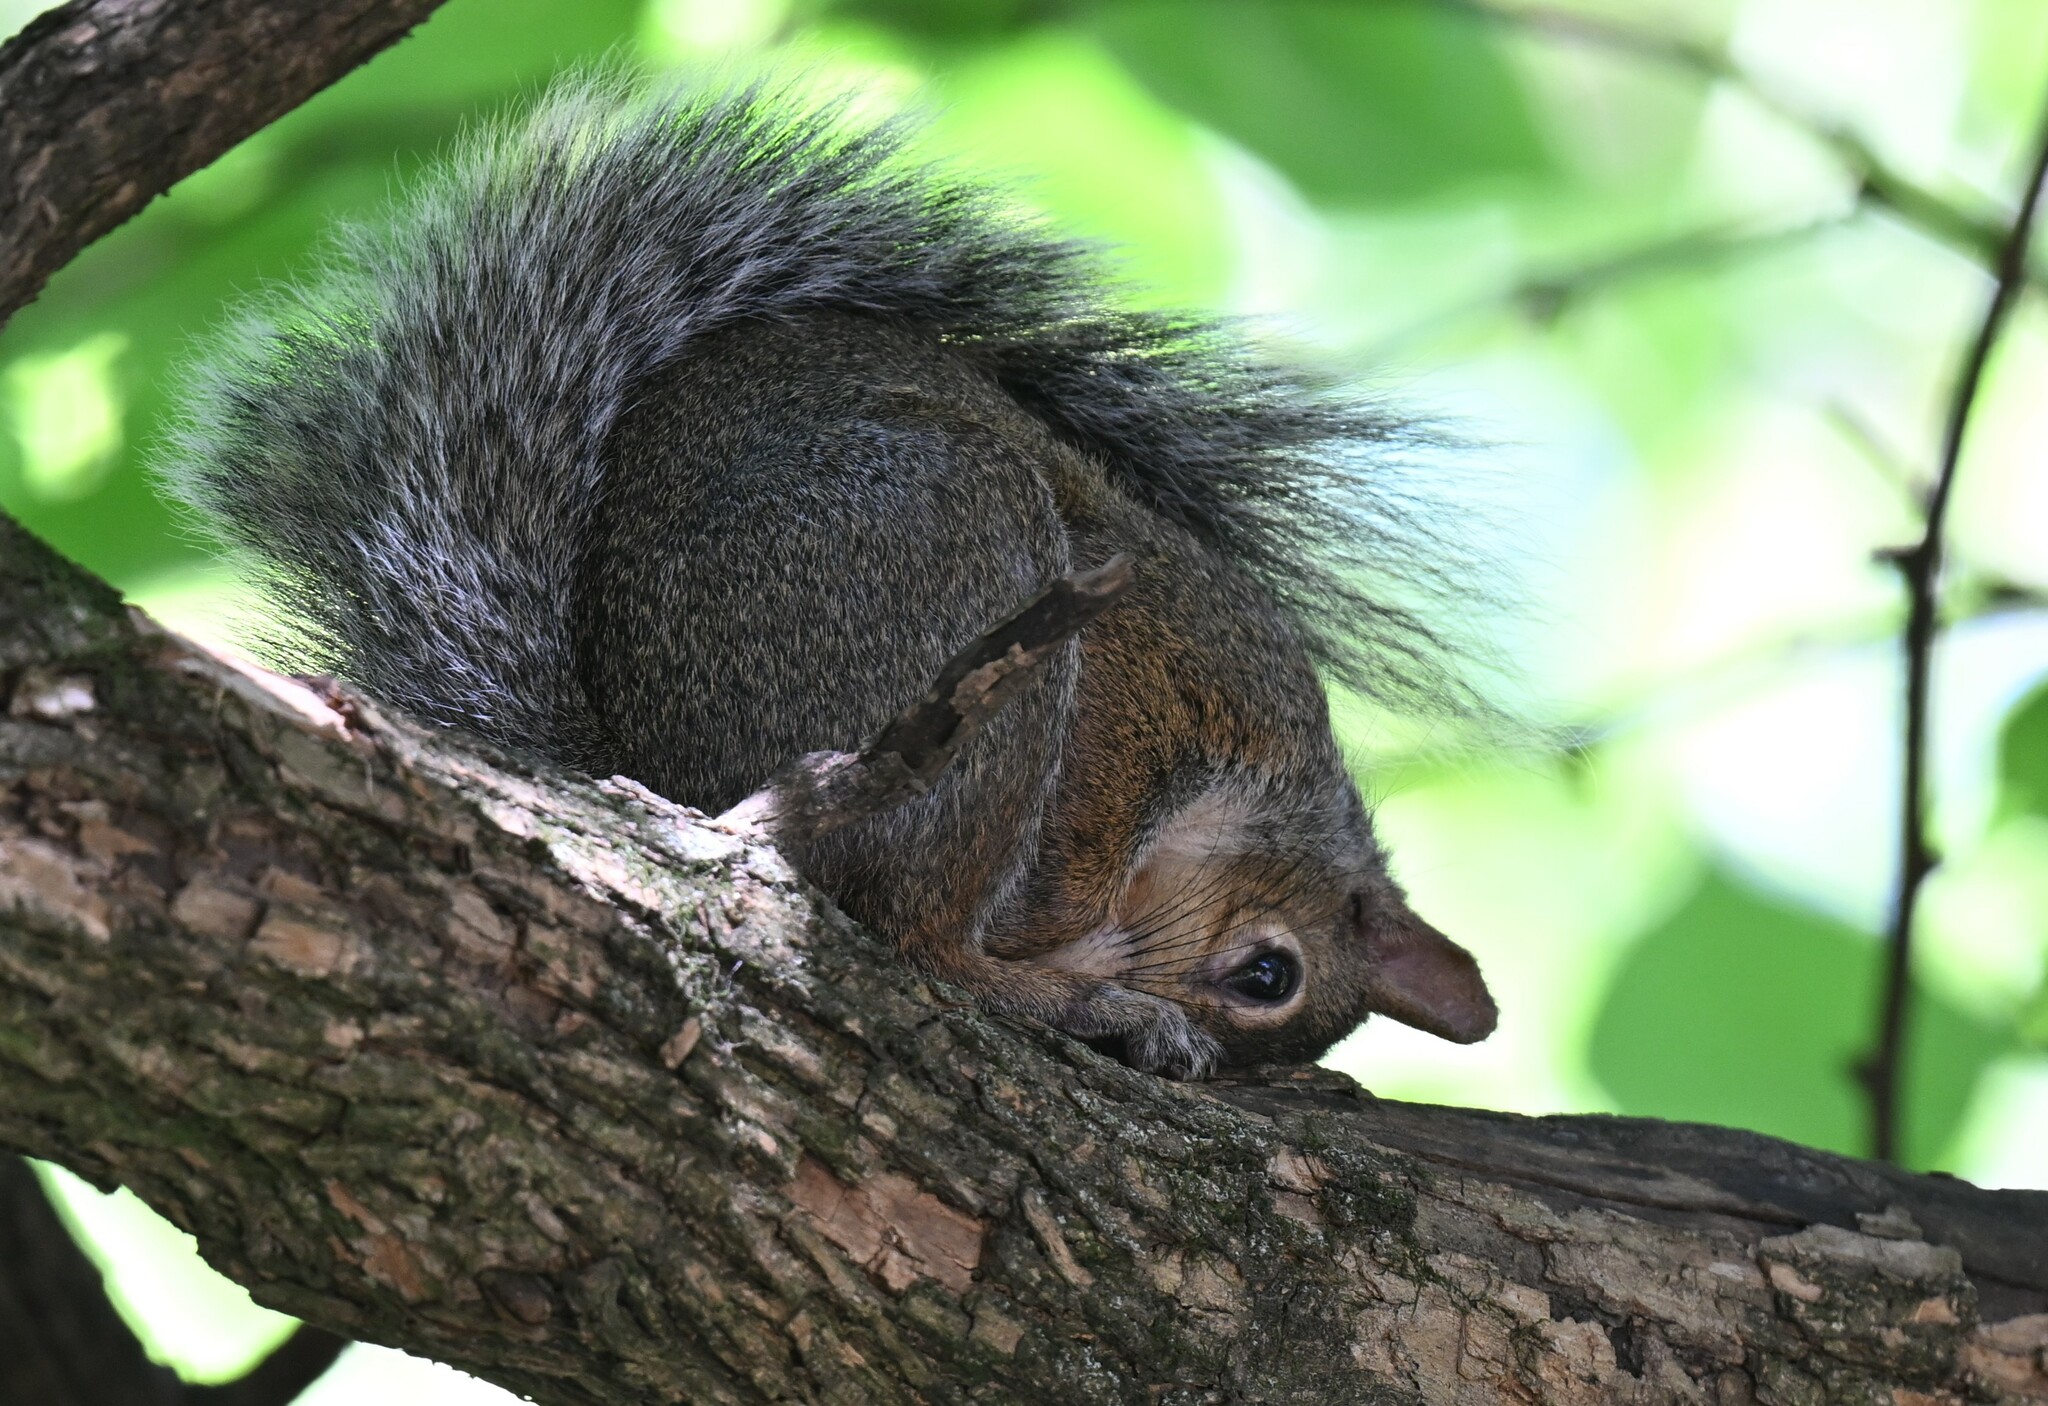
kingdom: Animalia
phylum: Chordata
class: Mammalia
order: Rodentia
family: Sciuridae
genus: Sciurus
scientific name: Sciurus carolinensis
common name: Eastern gray squirrel
